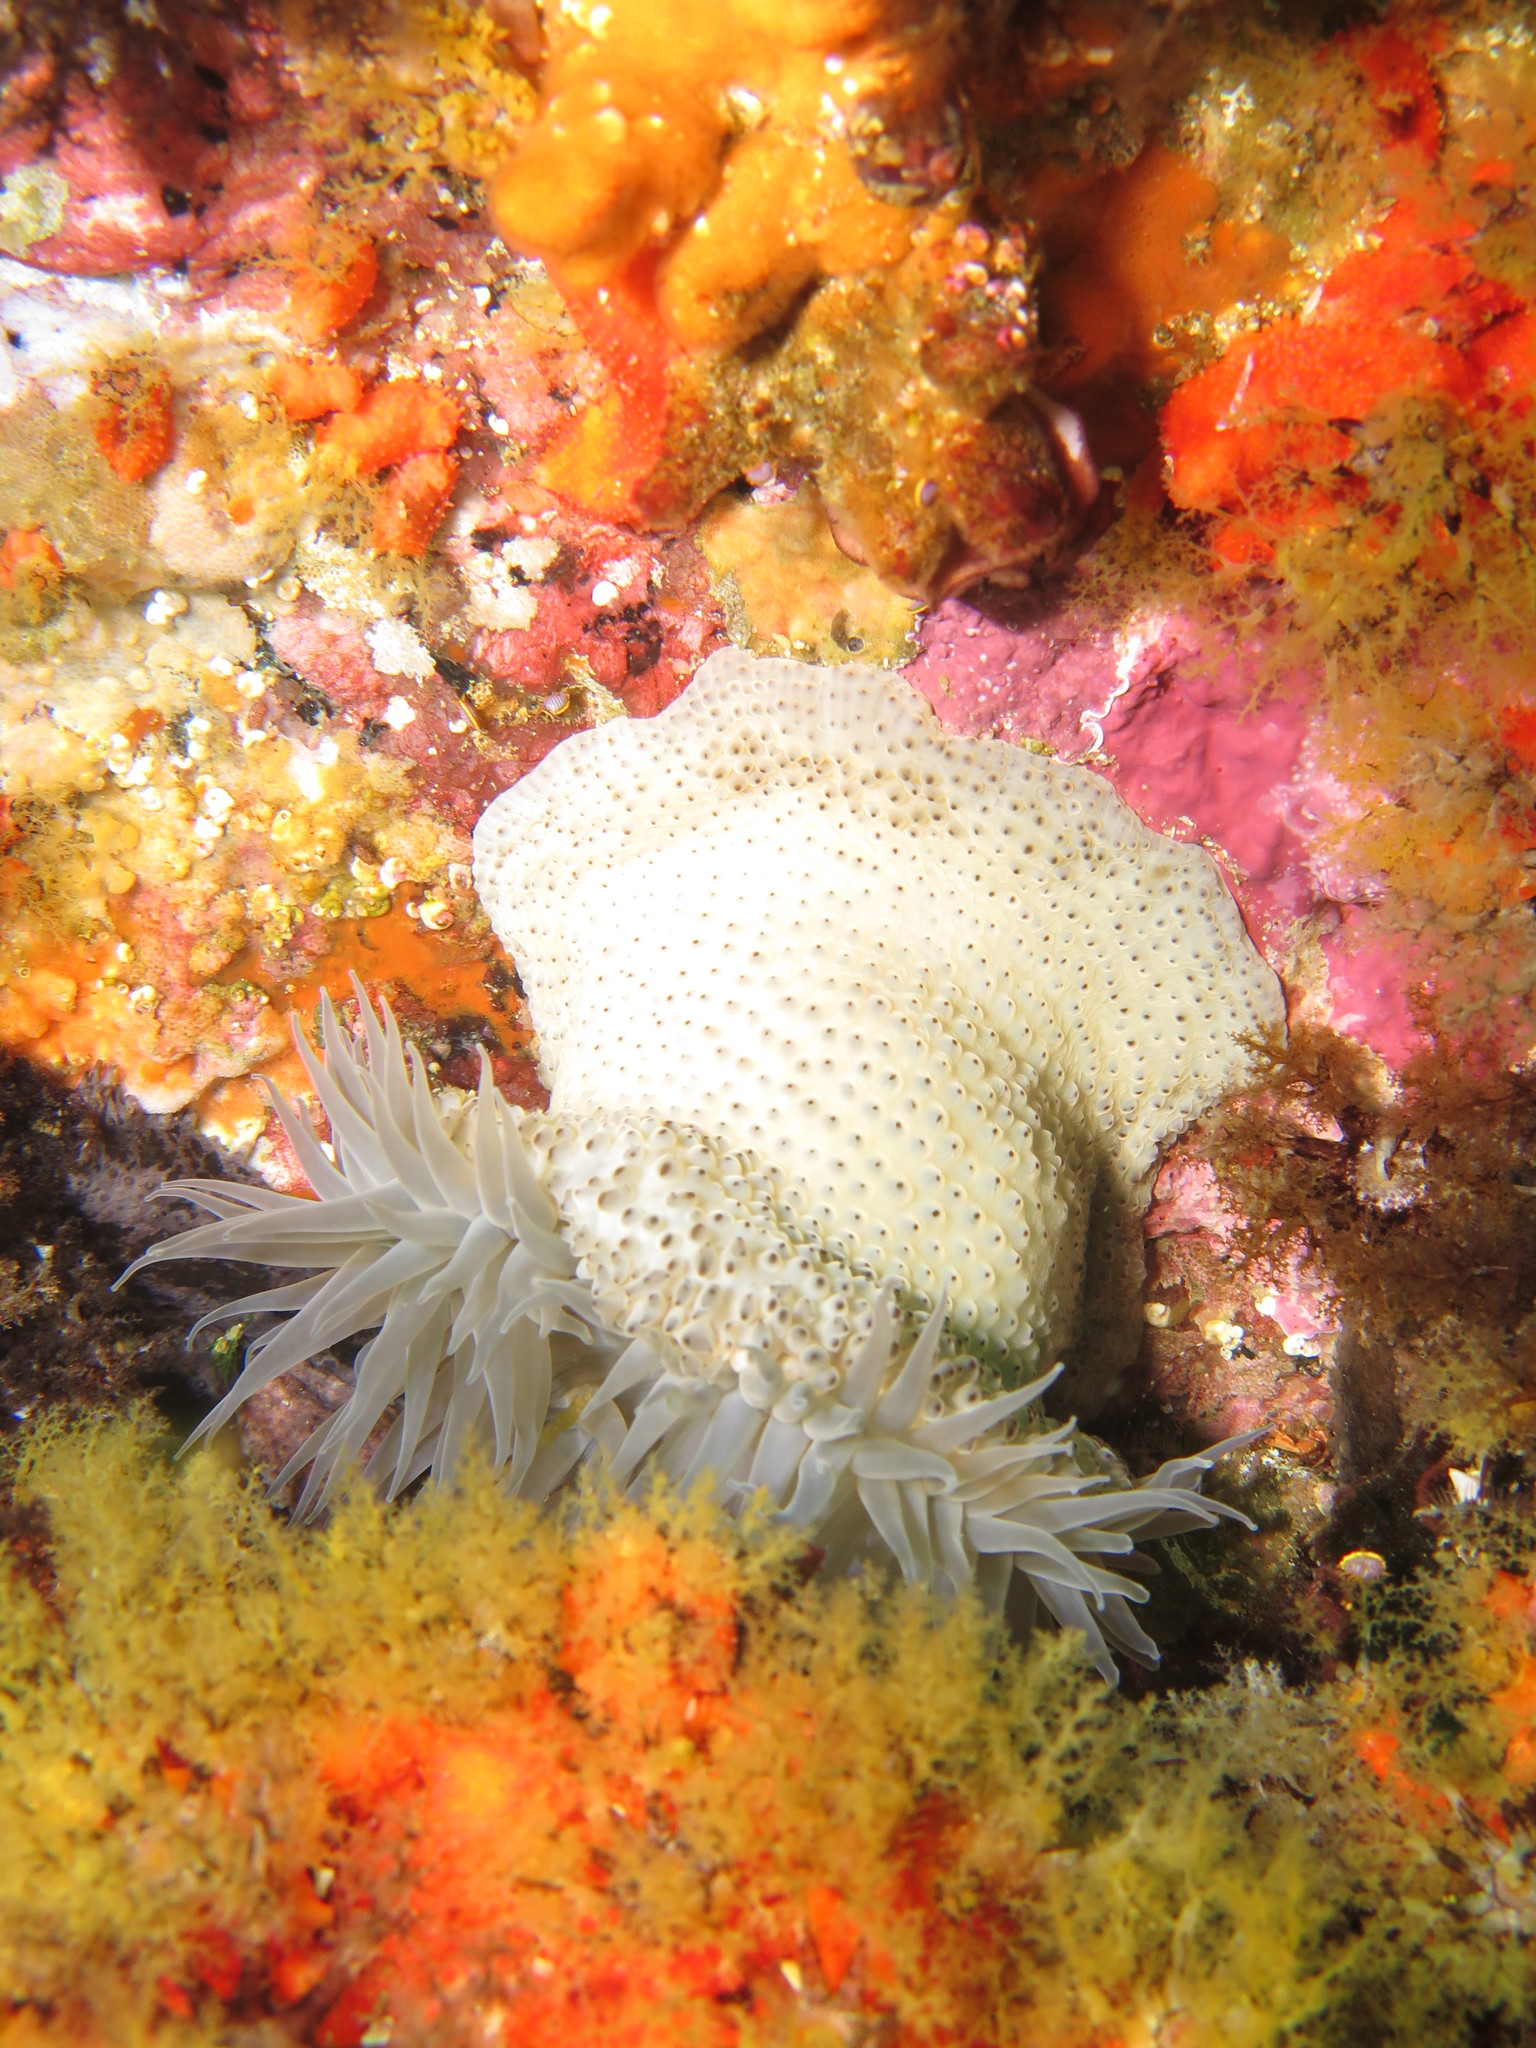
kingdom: Animalia
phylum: Cnidaria
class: Anthozoa
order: Actiniaria
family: Actiniidae
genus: Bunodosoma
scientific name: Bunodosoma capense
